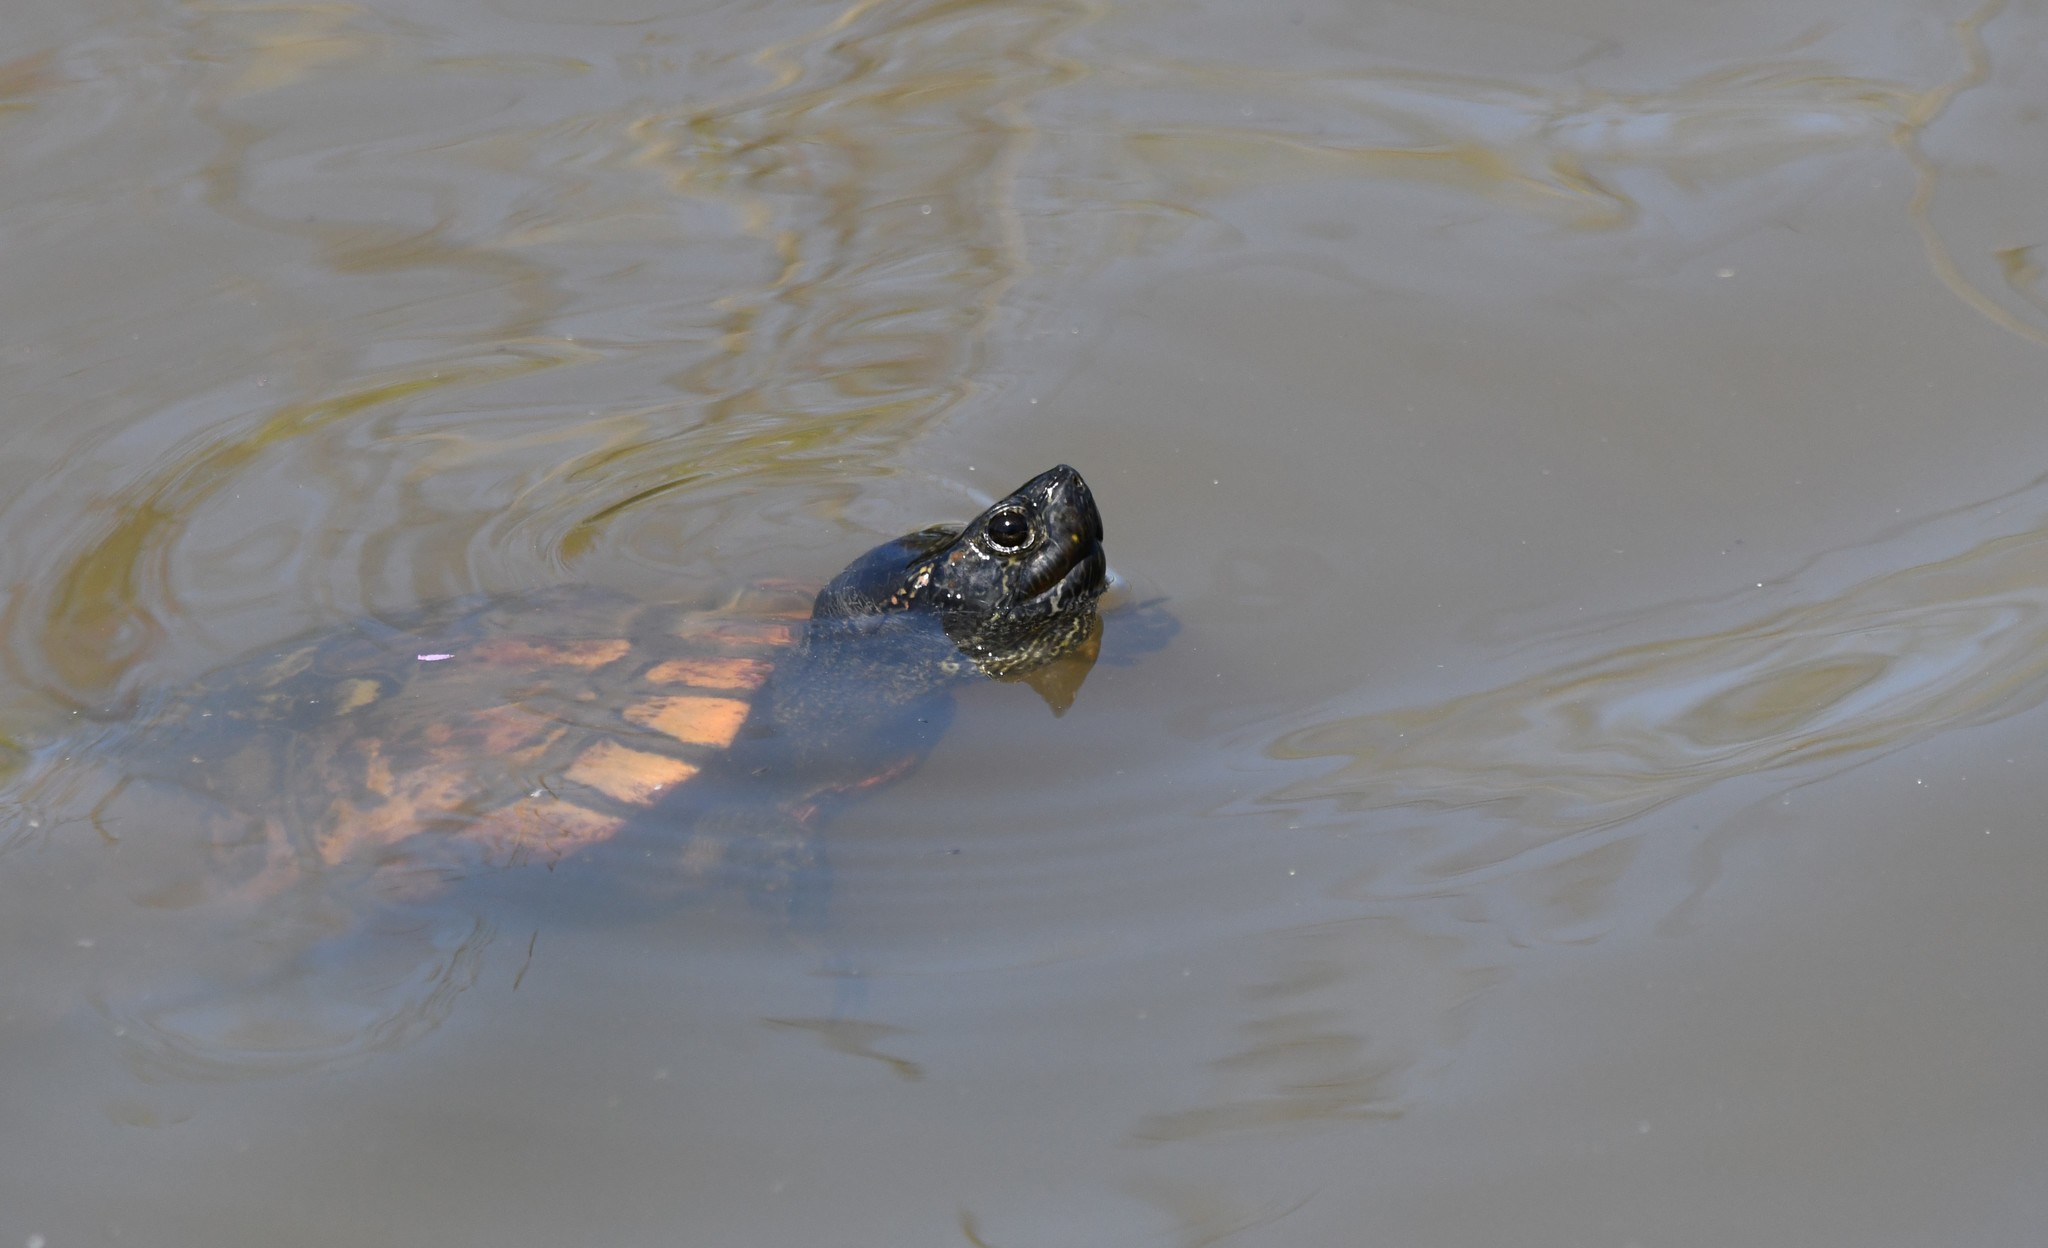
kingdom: Animalia
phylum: Chordata
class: Testudines
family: Emydidae
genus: Trachemys
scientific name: Trachemys scripta
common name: Slider
